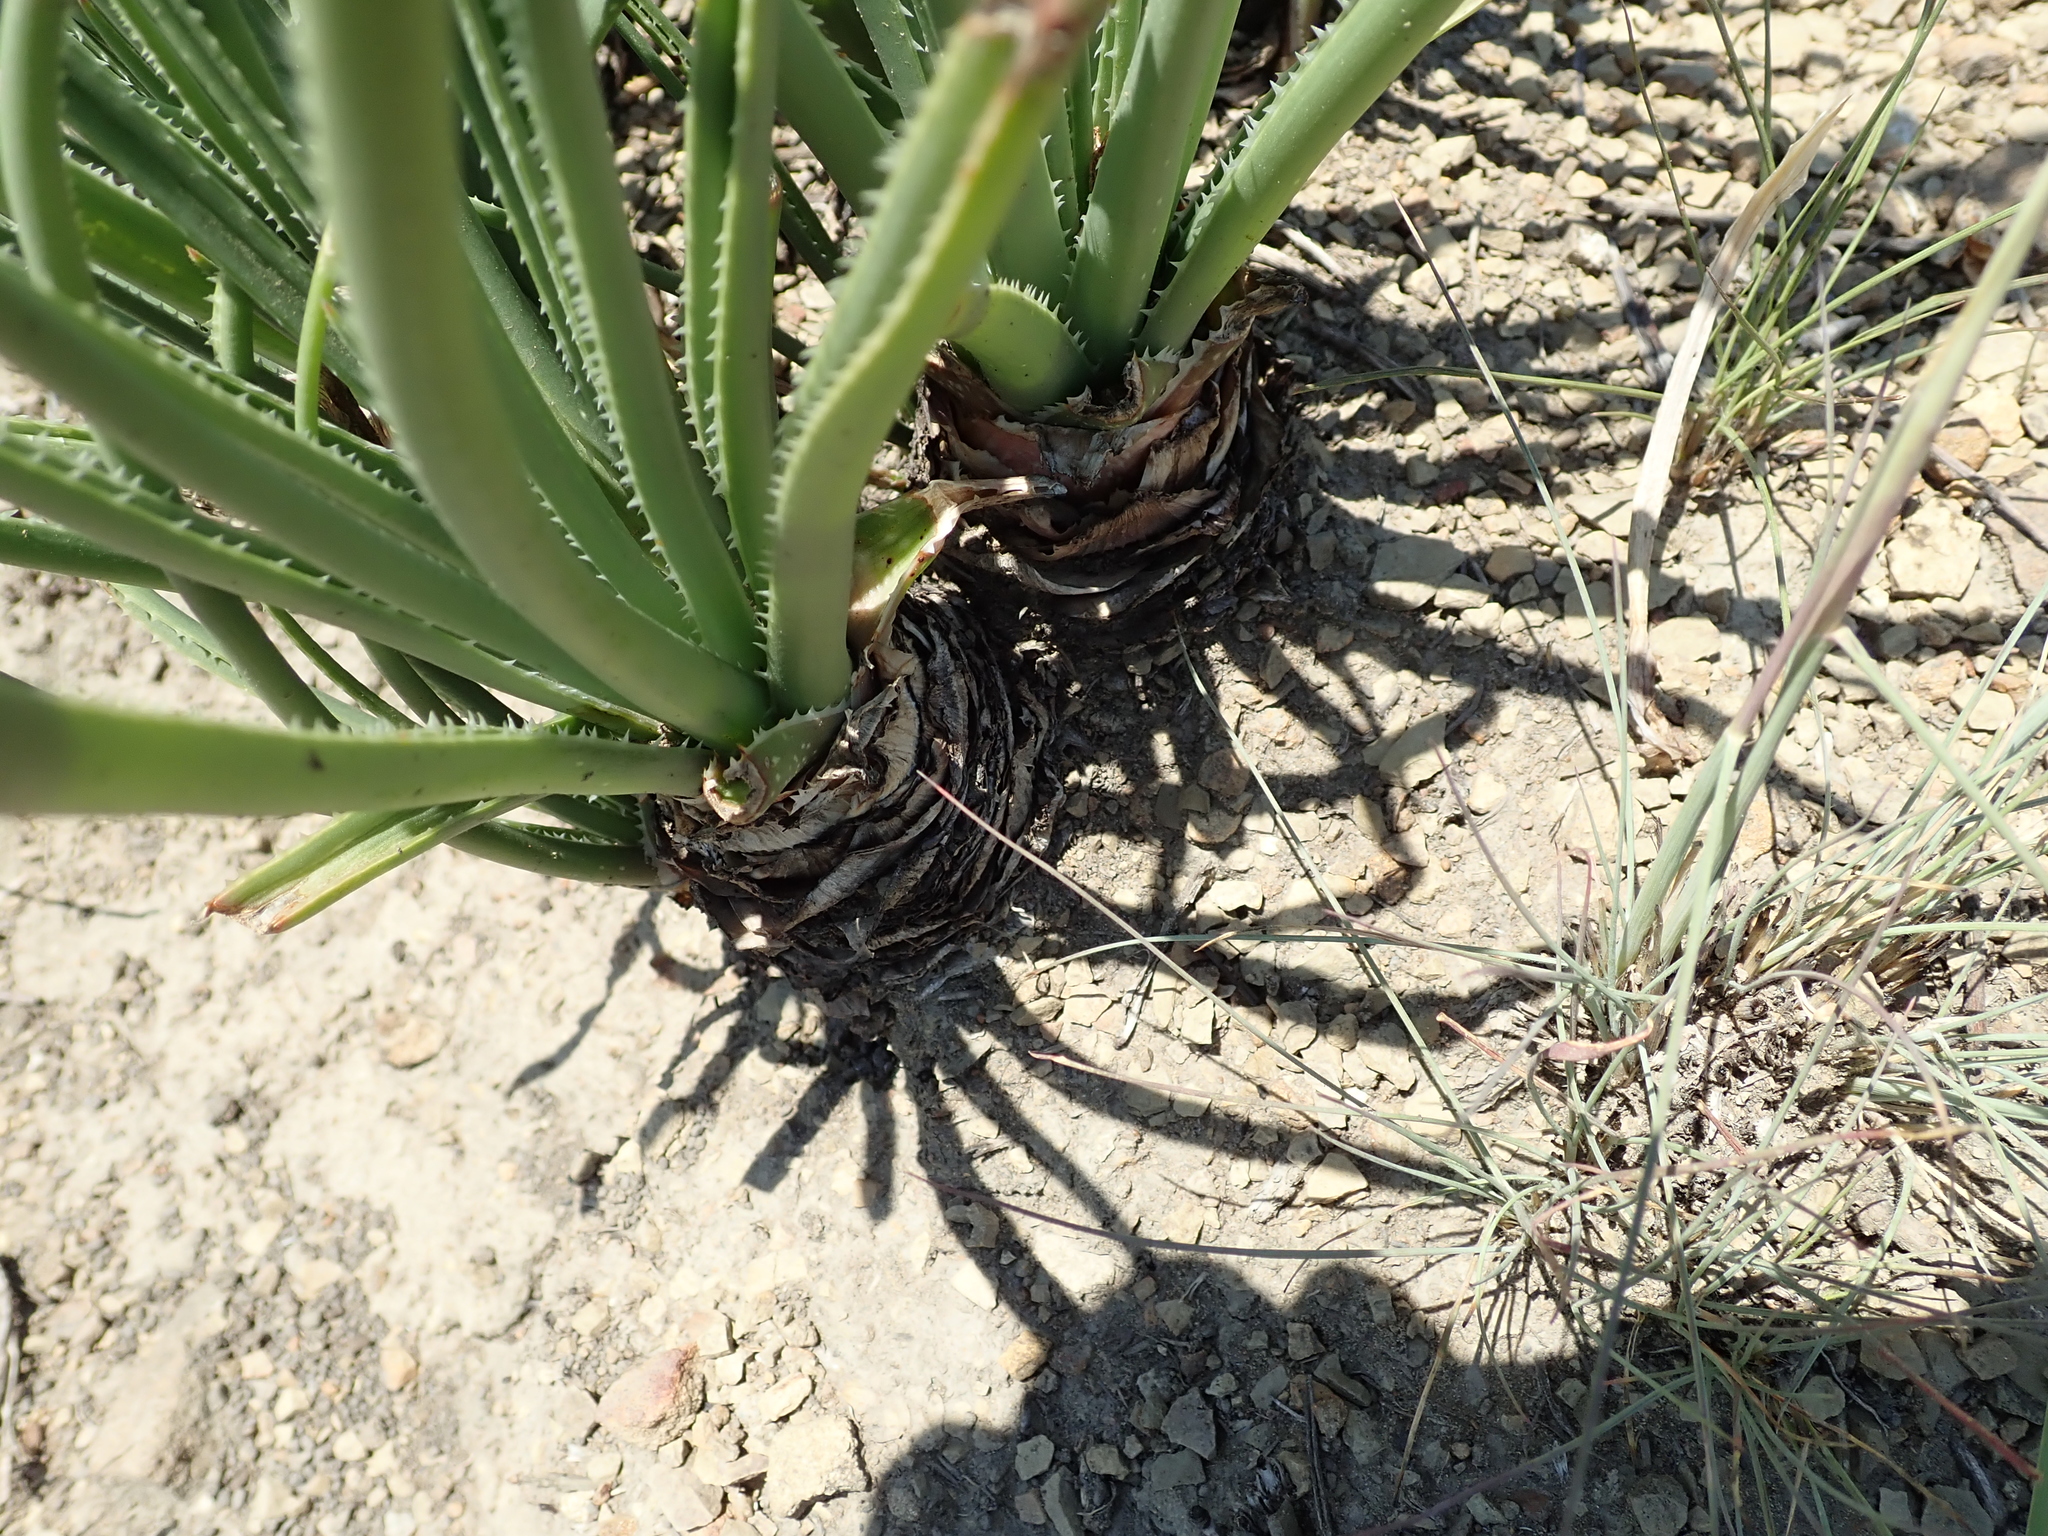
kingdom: Plantae
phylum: Tracheophyta
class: Liliopsida
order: Asparagales
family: Asphodelaceae
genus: Aloe
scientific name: Aloe dominella
